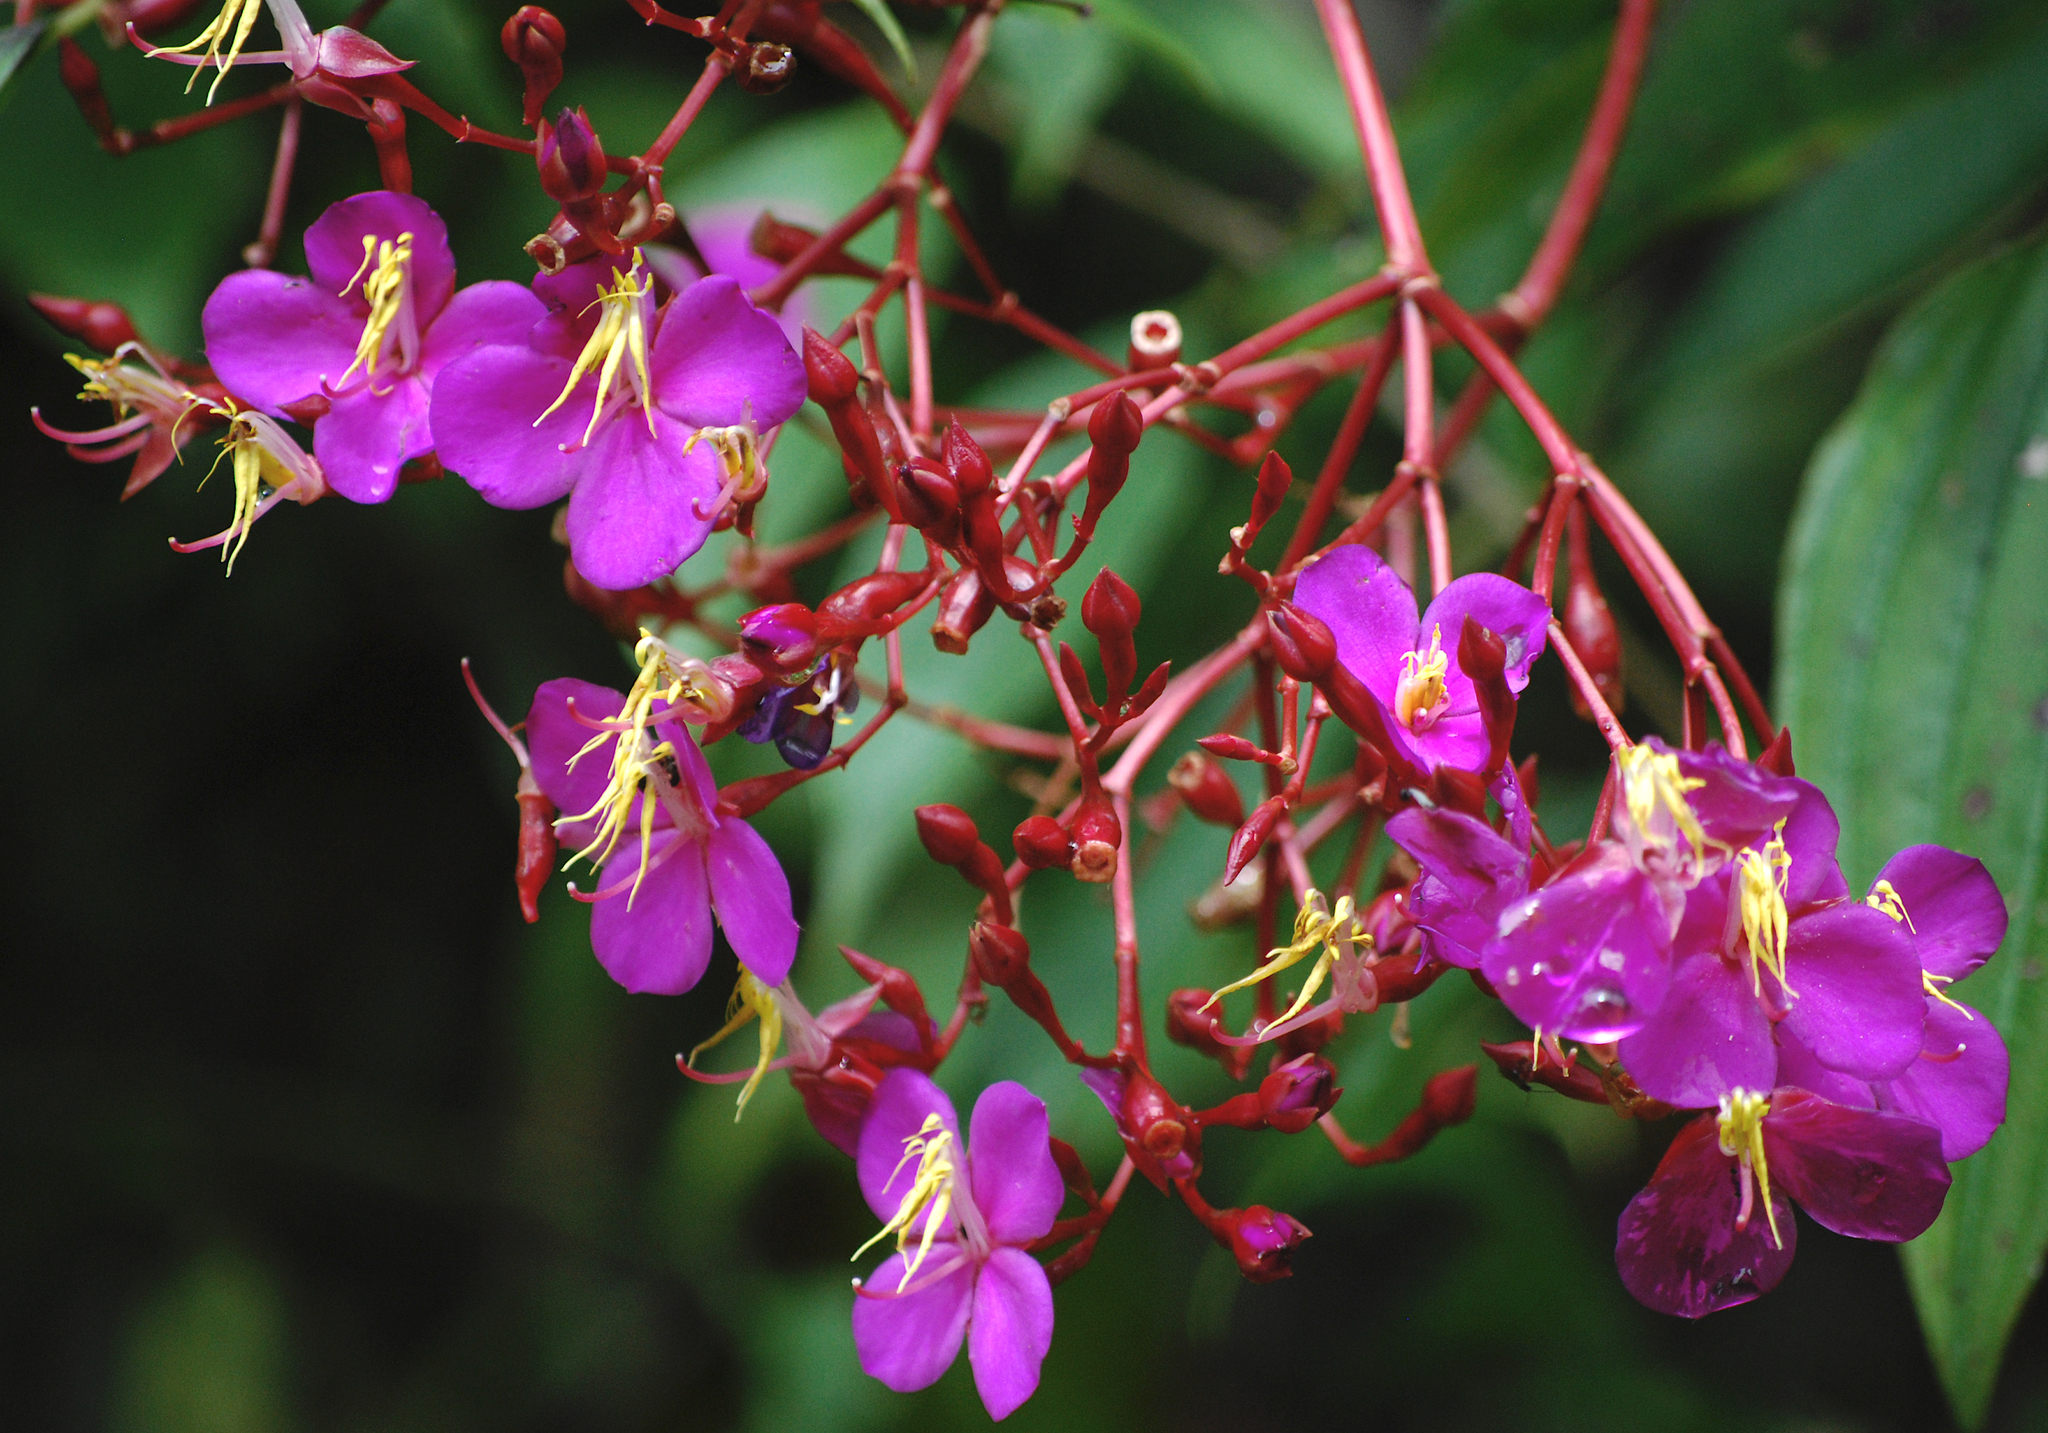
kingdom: Plantae
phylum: Tracheophyta
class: Magnoliopsida
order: Myrtales
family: Melastomataceae
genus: Monochaetum
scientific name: Monochaetum magdalenense
